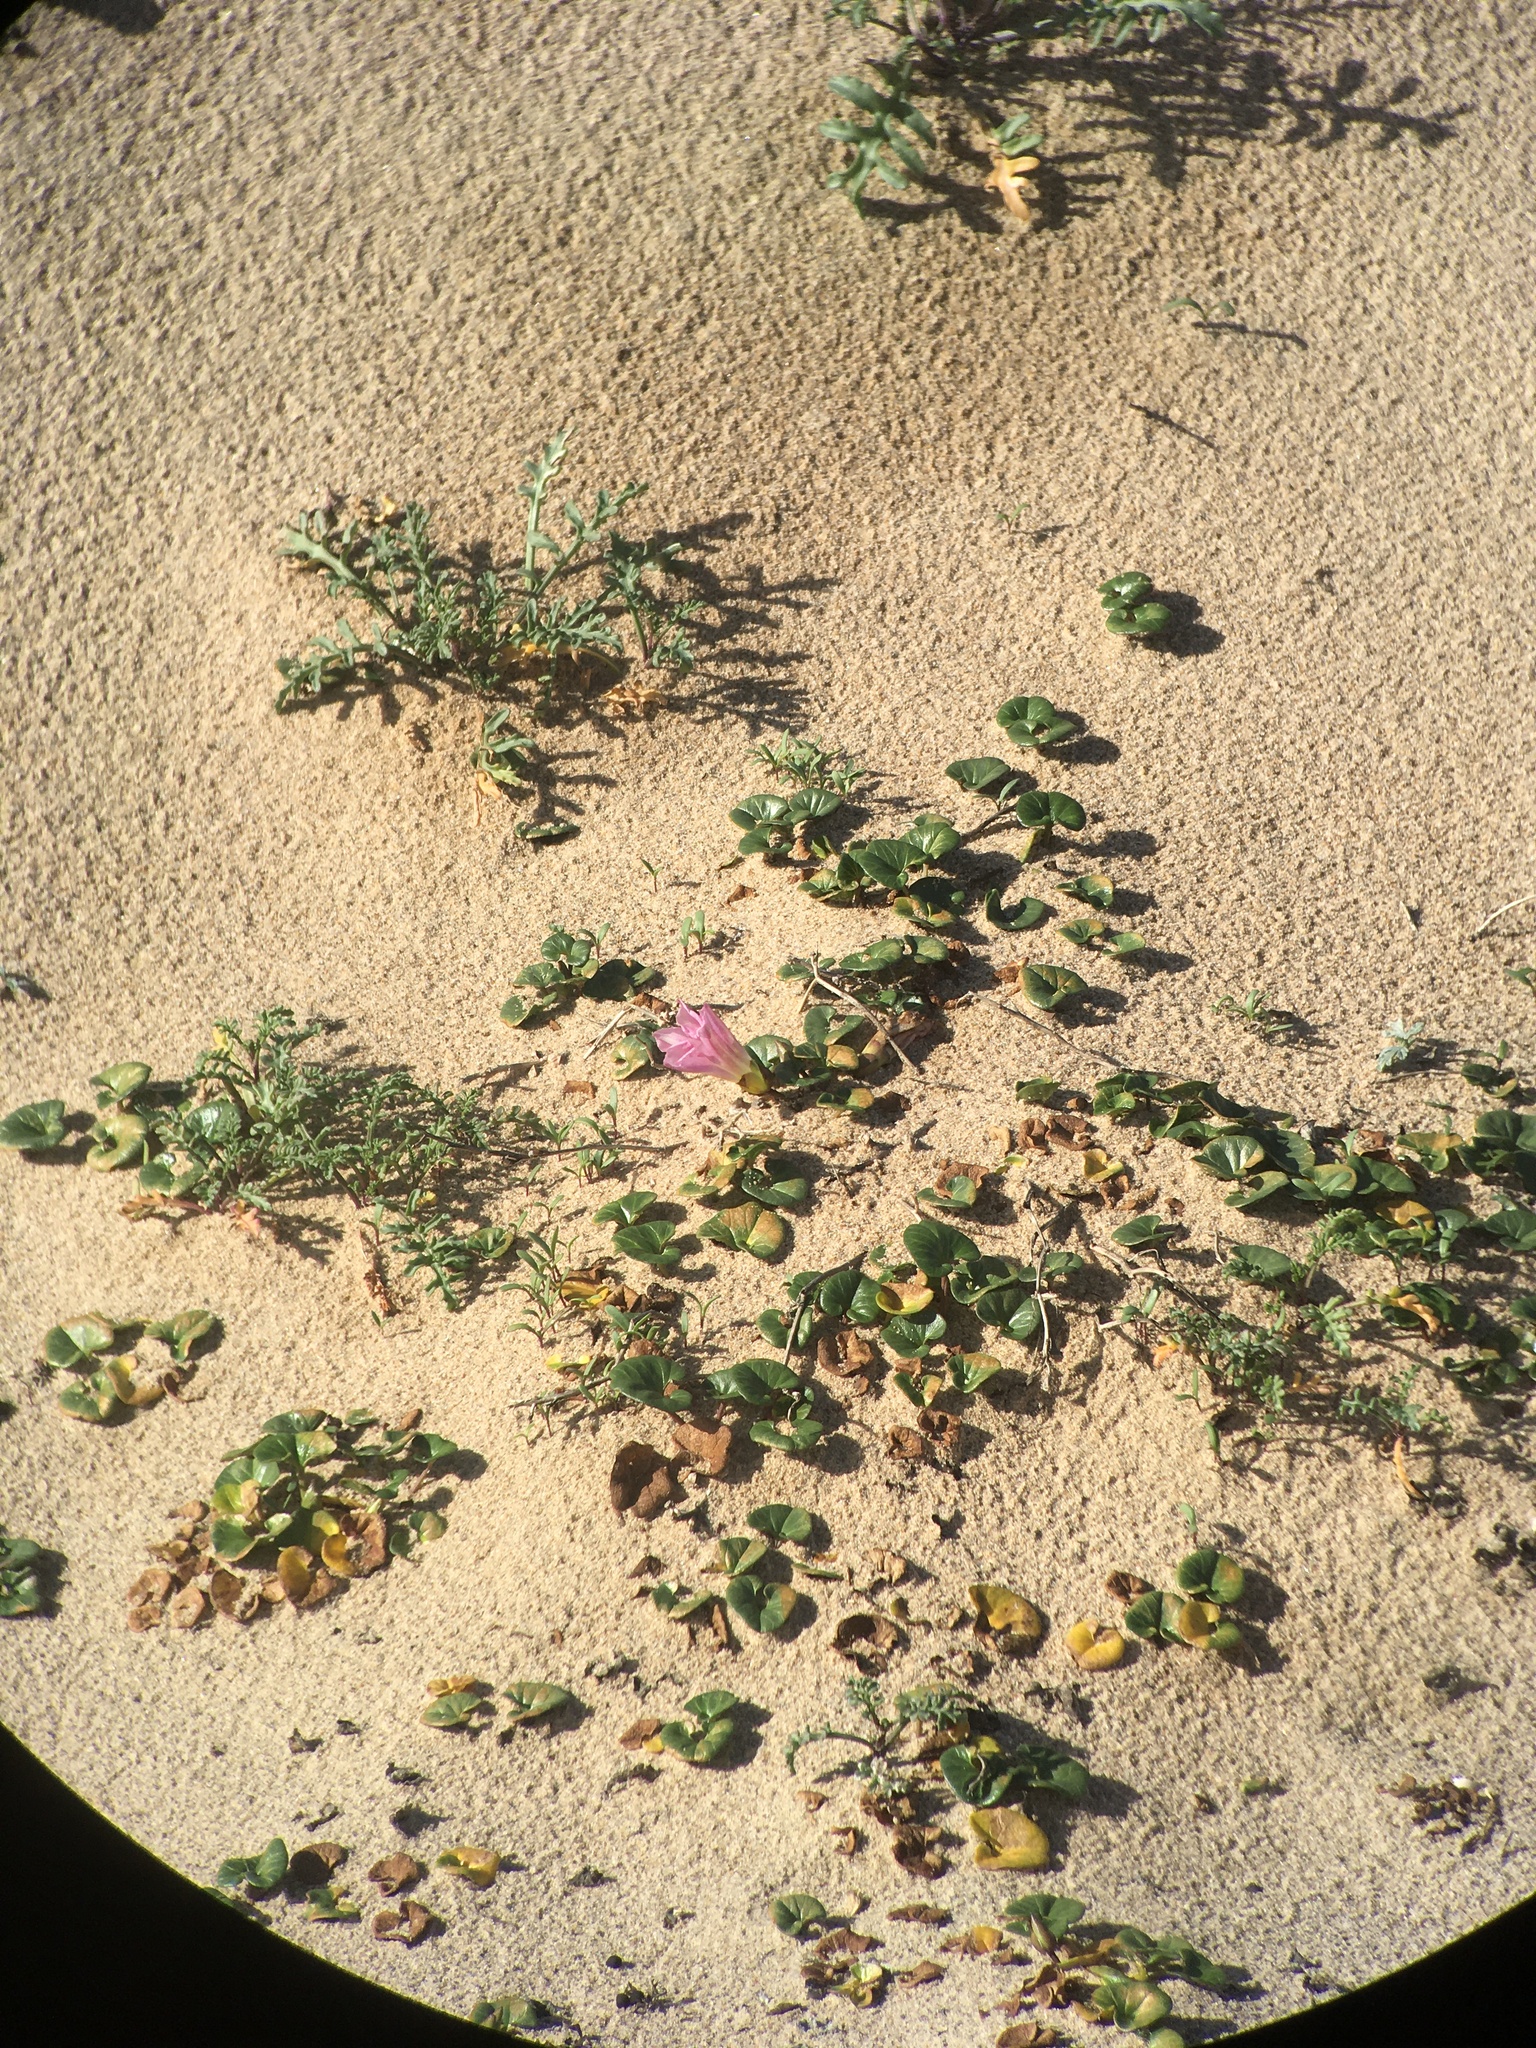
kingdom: Plantae
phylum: Tracheophyta
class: Magnoliopsida
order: Solanales
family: Convolvulaceae
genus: Calystegia
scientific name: Calystegia soldanella
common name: Sea bindweed
